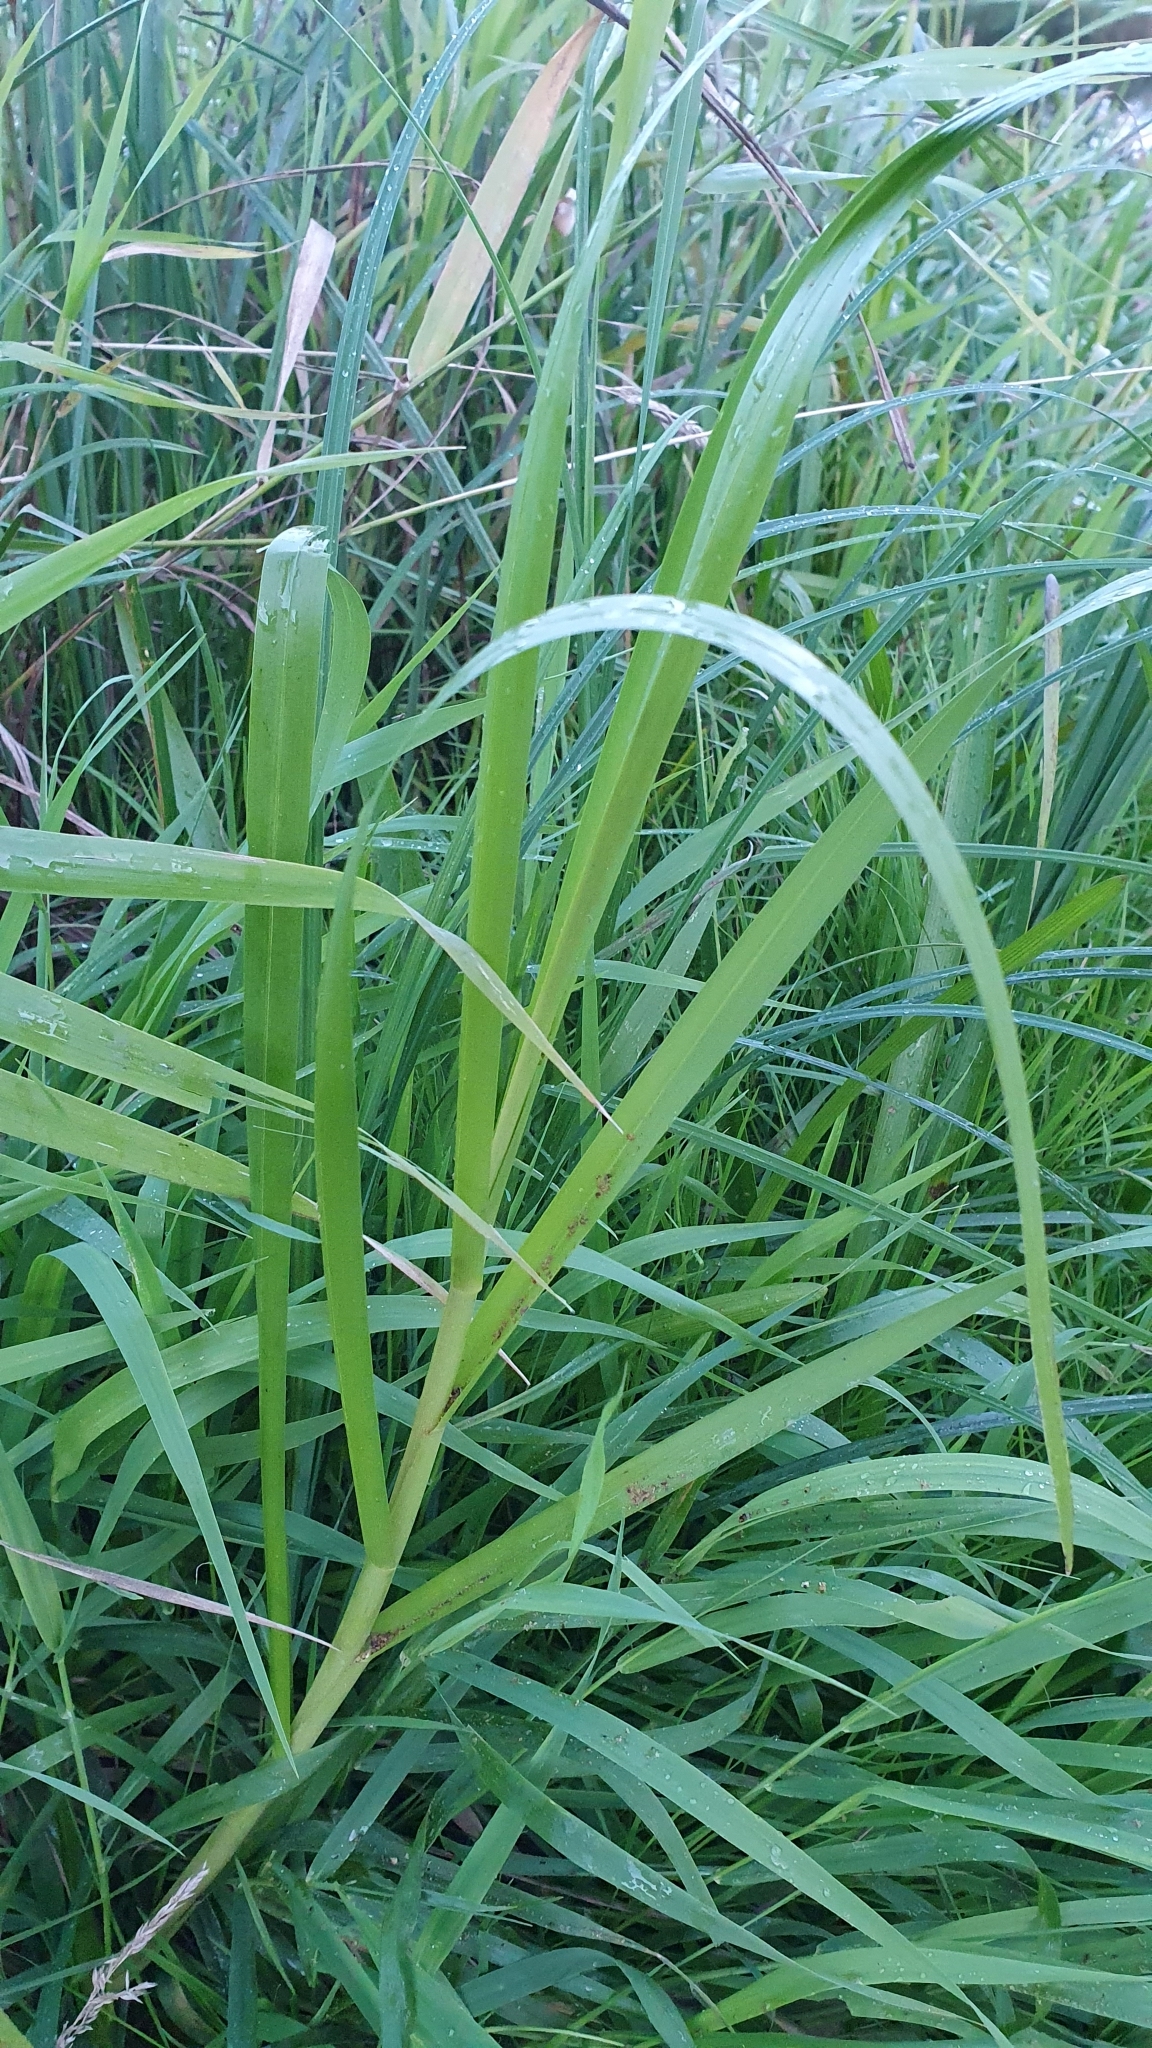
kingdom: Plantae
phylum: Tracheophyta
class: Liliopsida
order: Poales
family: Poaceae
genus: Glyceria
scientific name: Glyceria maxima
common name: Reed mannagrass
